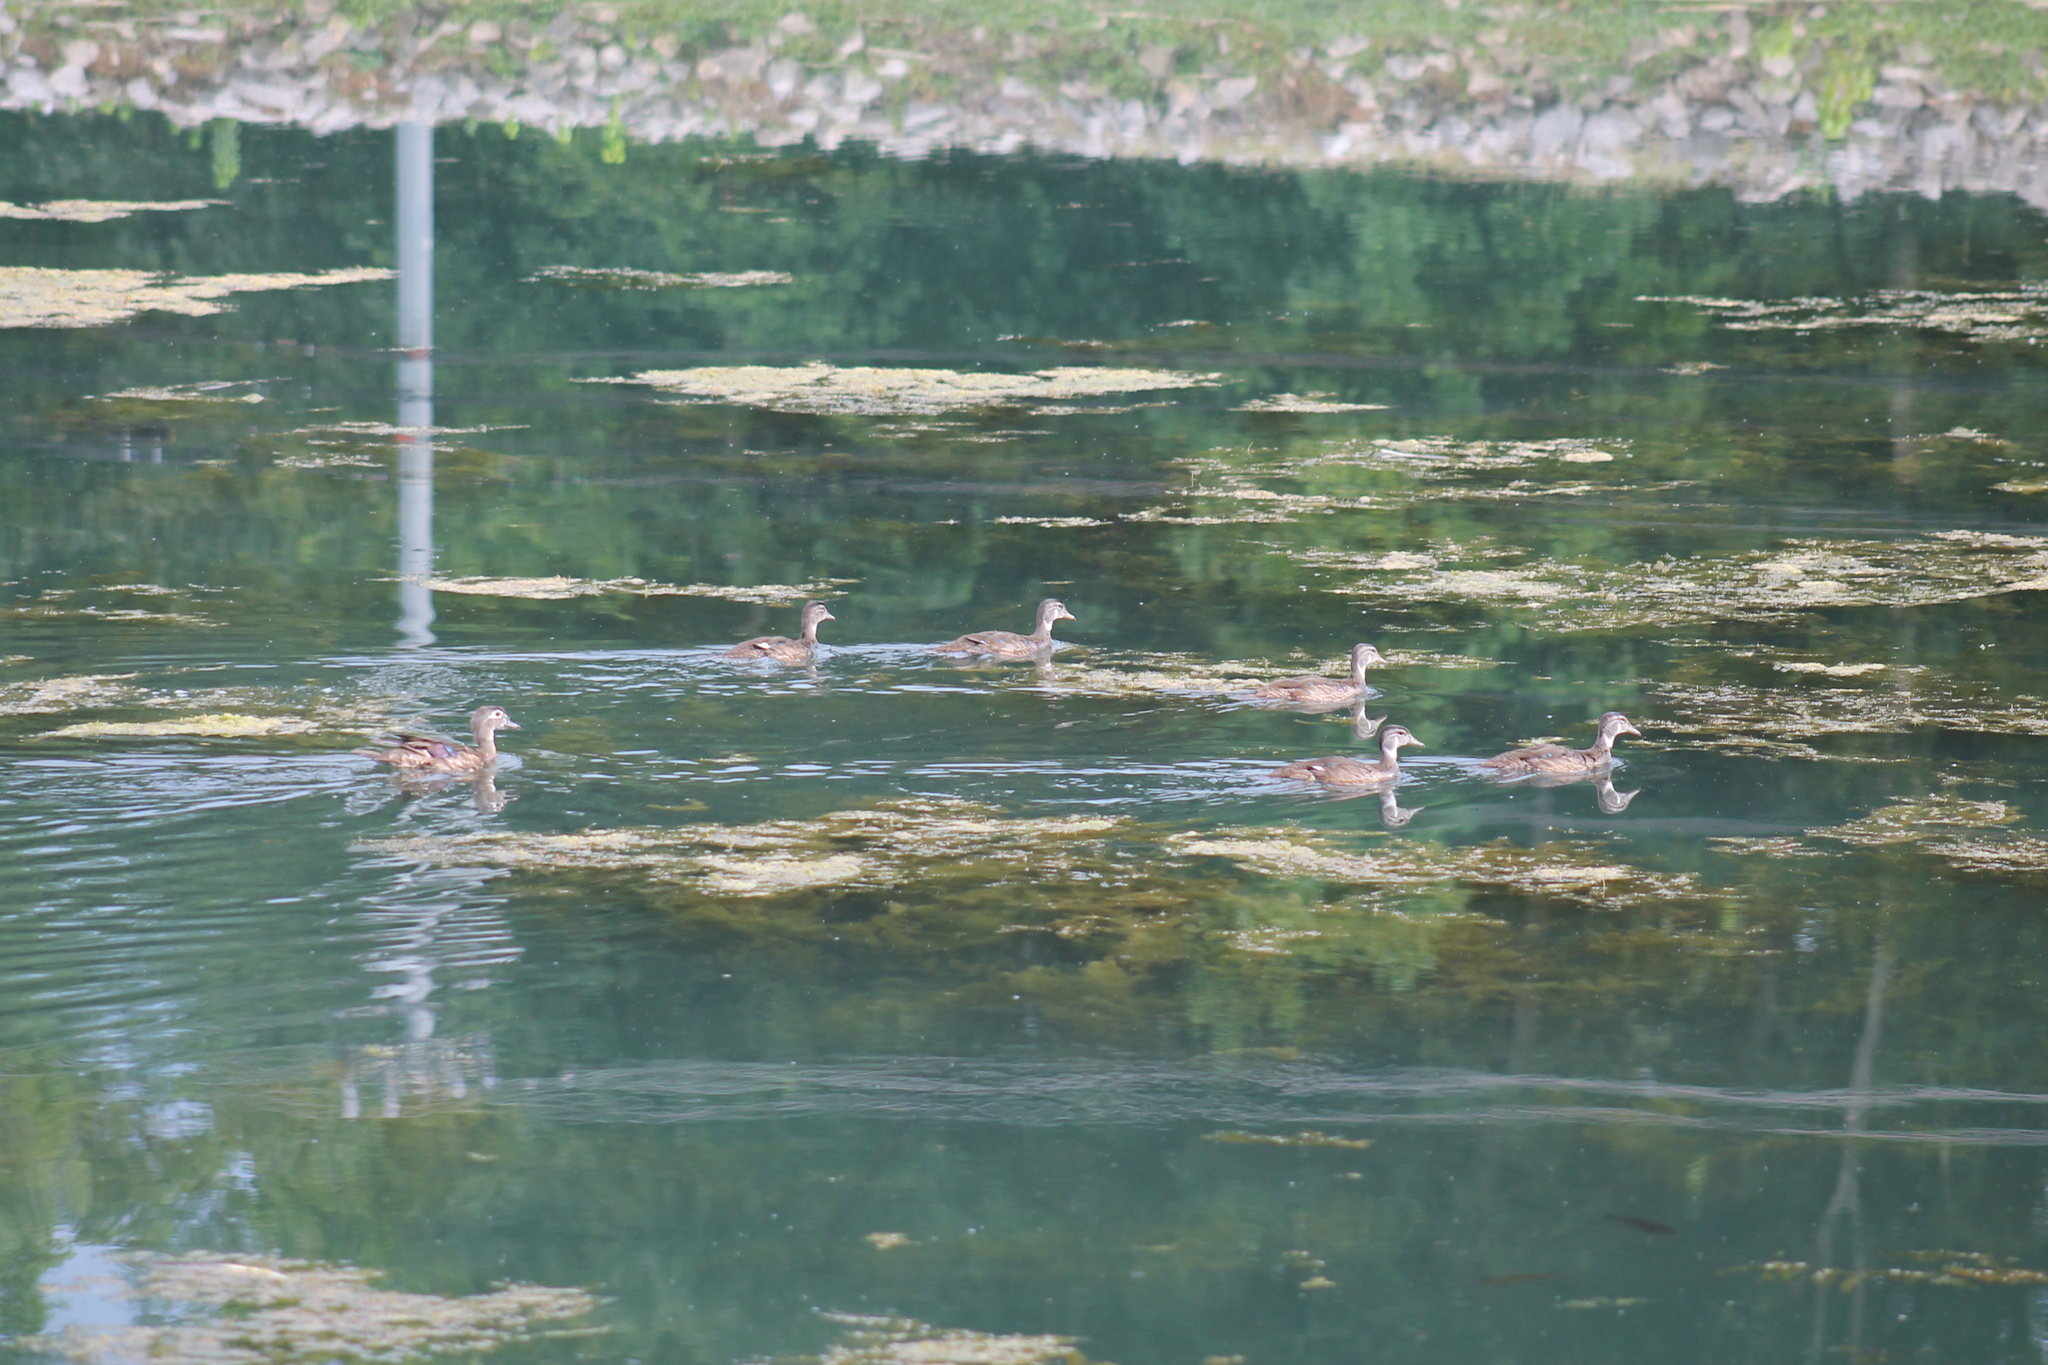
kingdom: Animalia
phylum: Chordata
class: Aves
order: Anseriformes
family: Anatidae
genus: Aix
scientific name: Aix sponsa
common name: Wood duck
